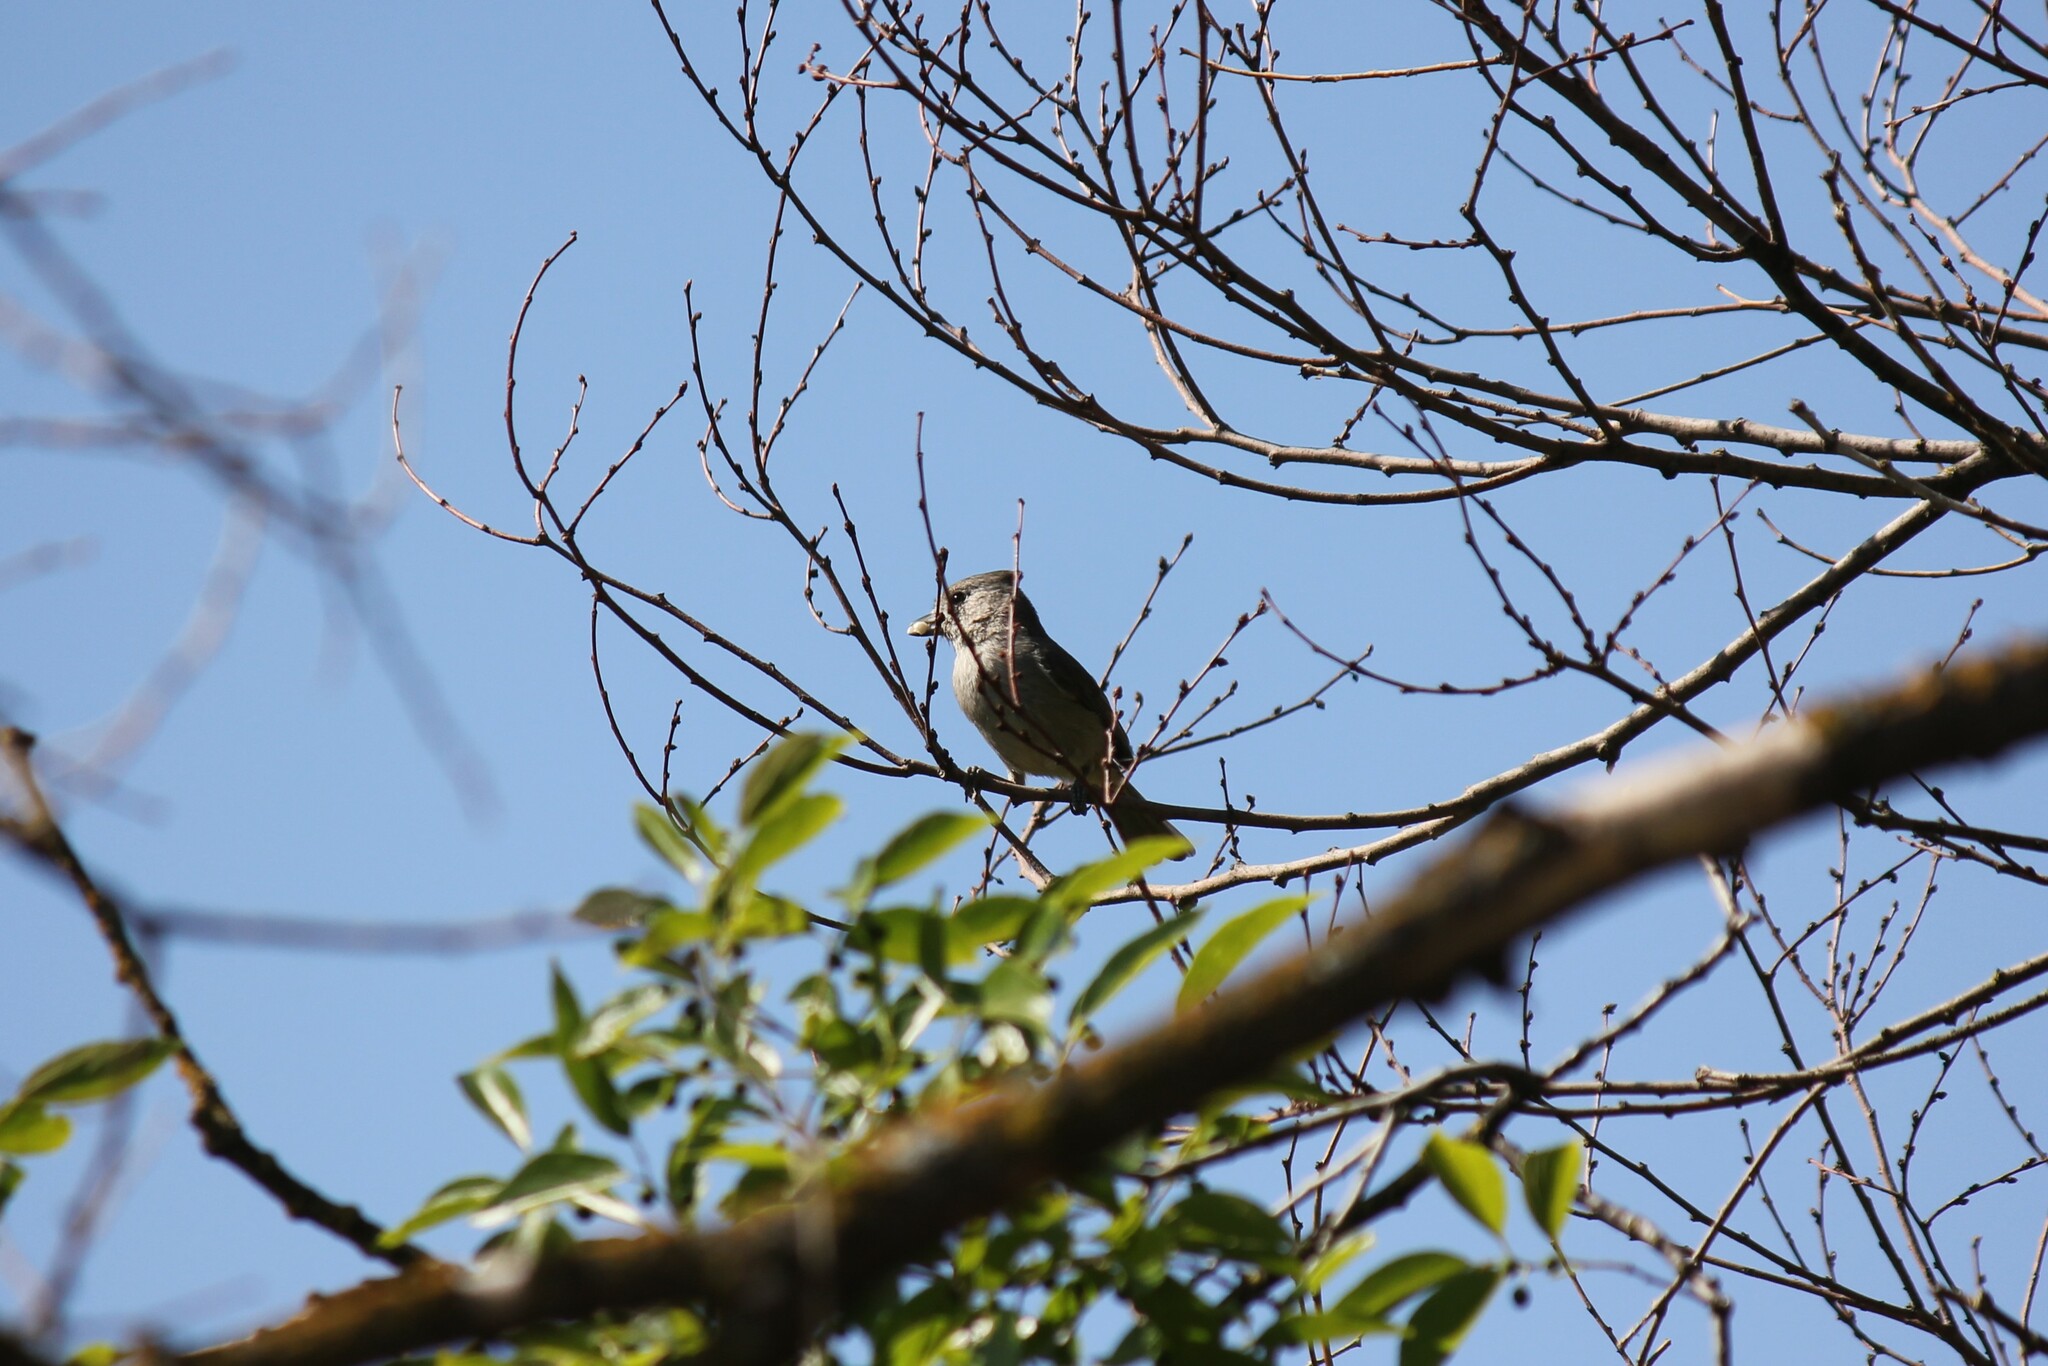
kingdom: Animalia
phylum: Chordata
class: Aves
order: Passeriformes
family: Paridae
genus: Baeolophus
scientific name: Baeolophus inornatus
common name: Oak titmouse
